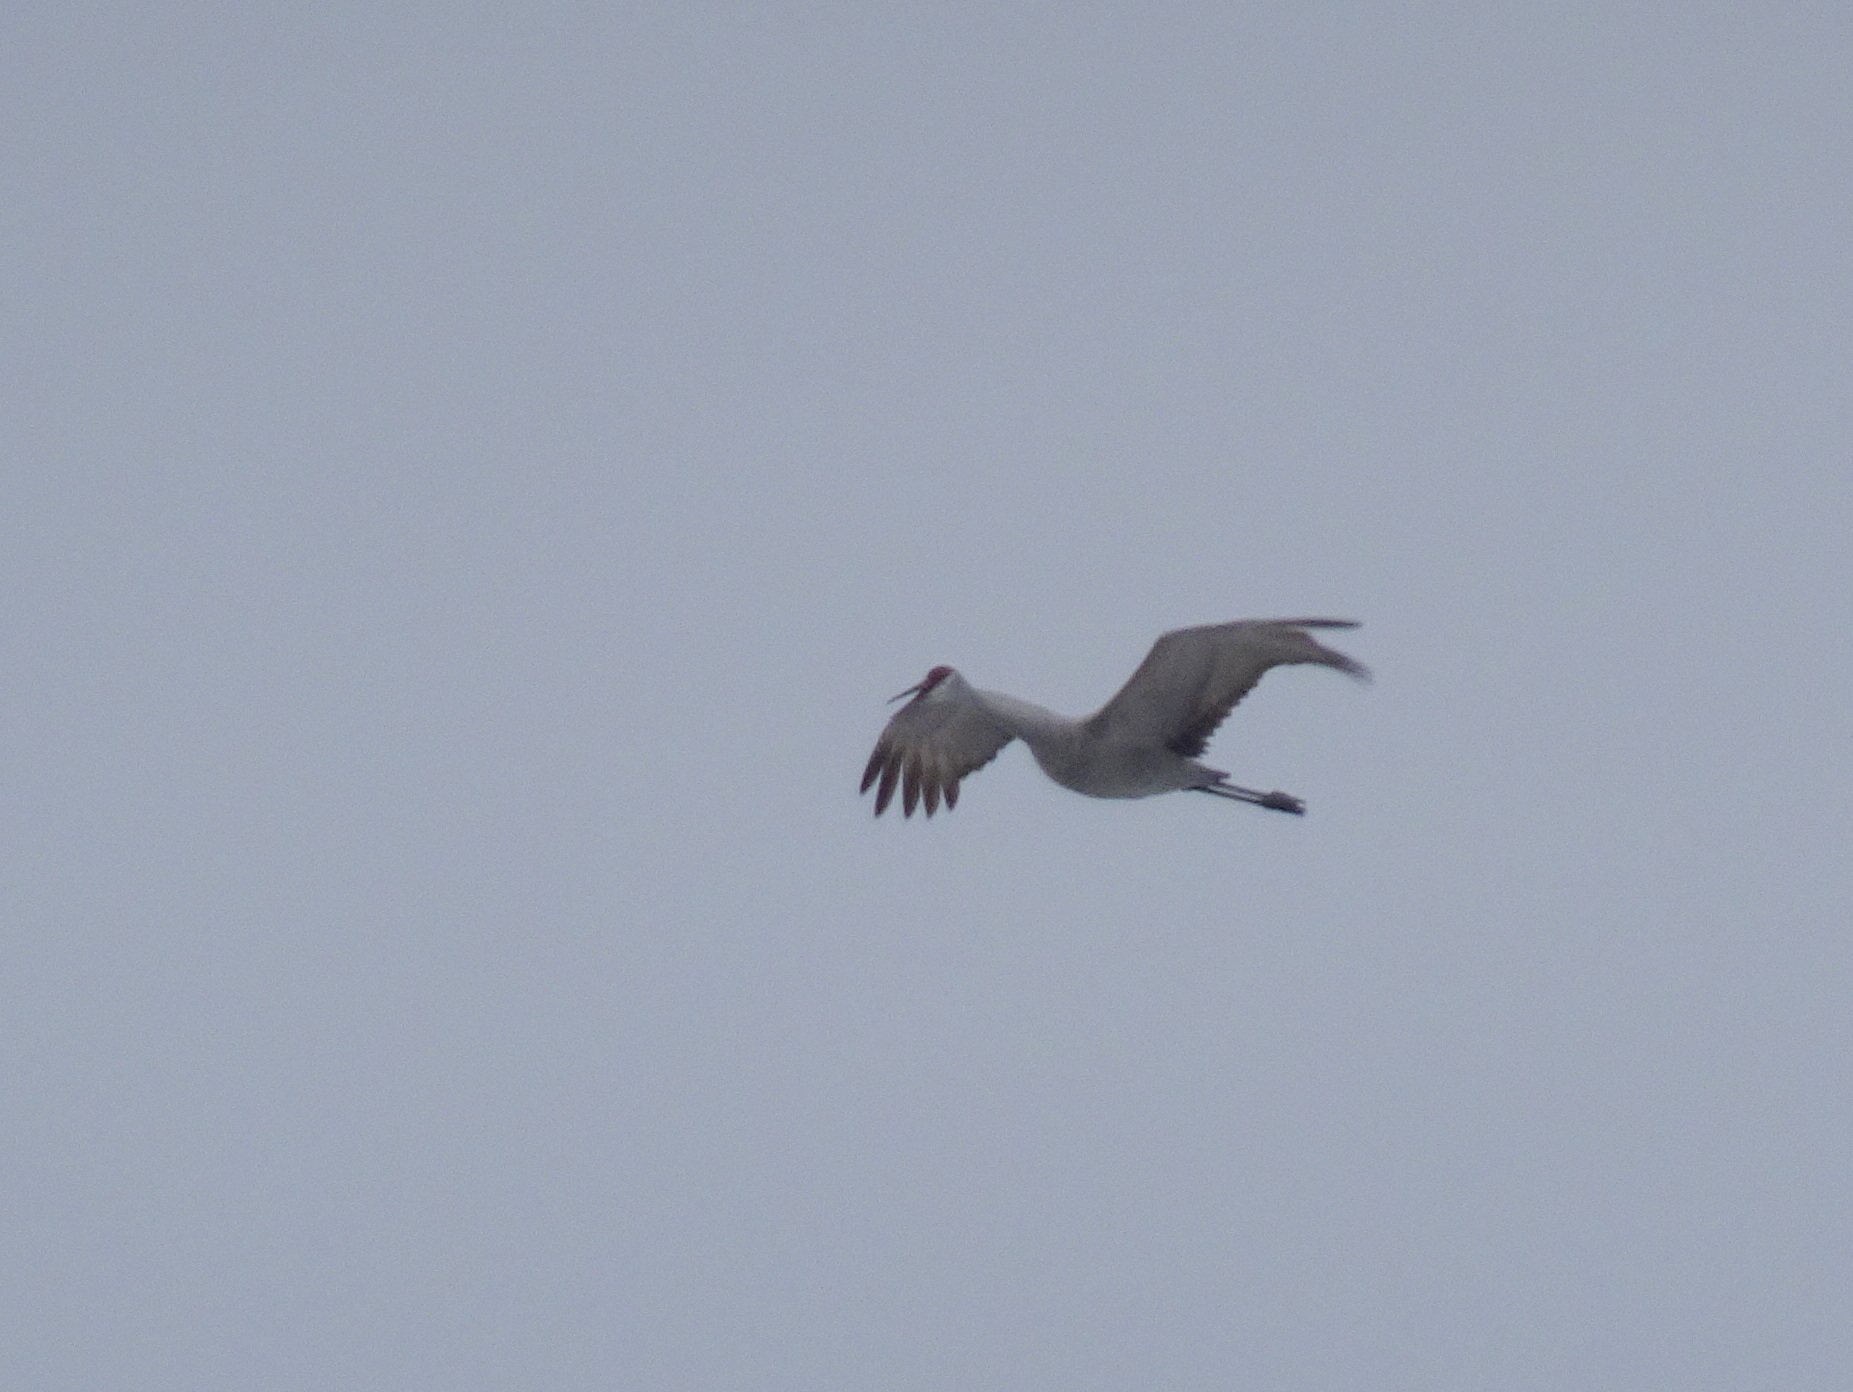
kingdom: Animalia
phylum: Chordata
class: Aves
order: Gruiformes
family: Gruidae
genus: Grus
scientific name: Grus canadensis
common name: Sandhill crane
